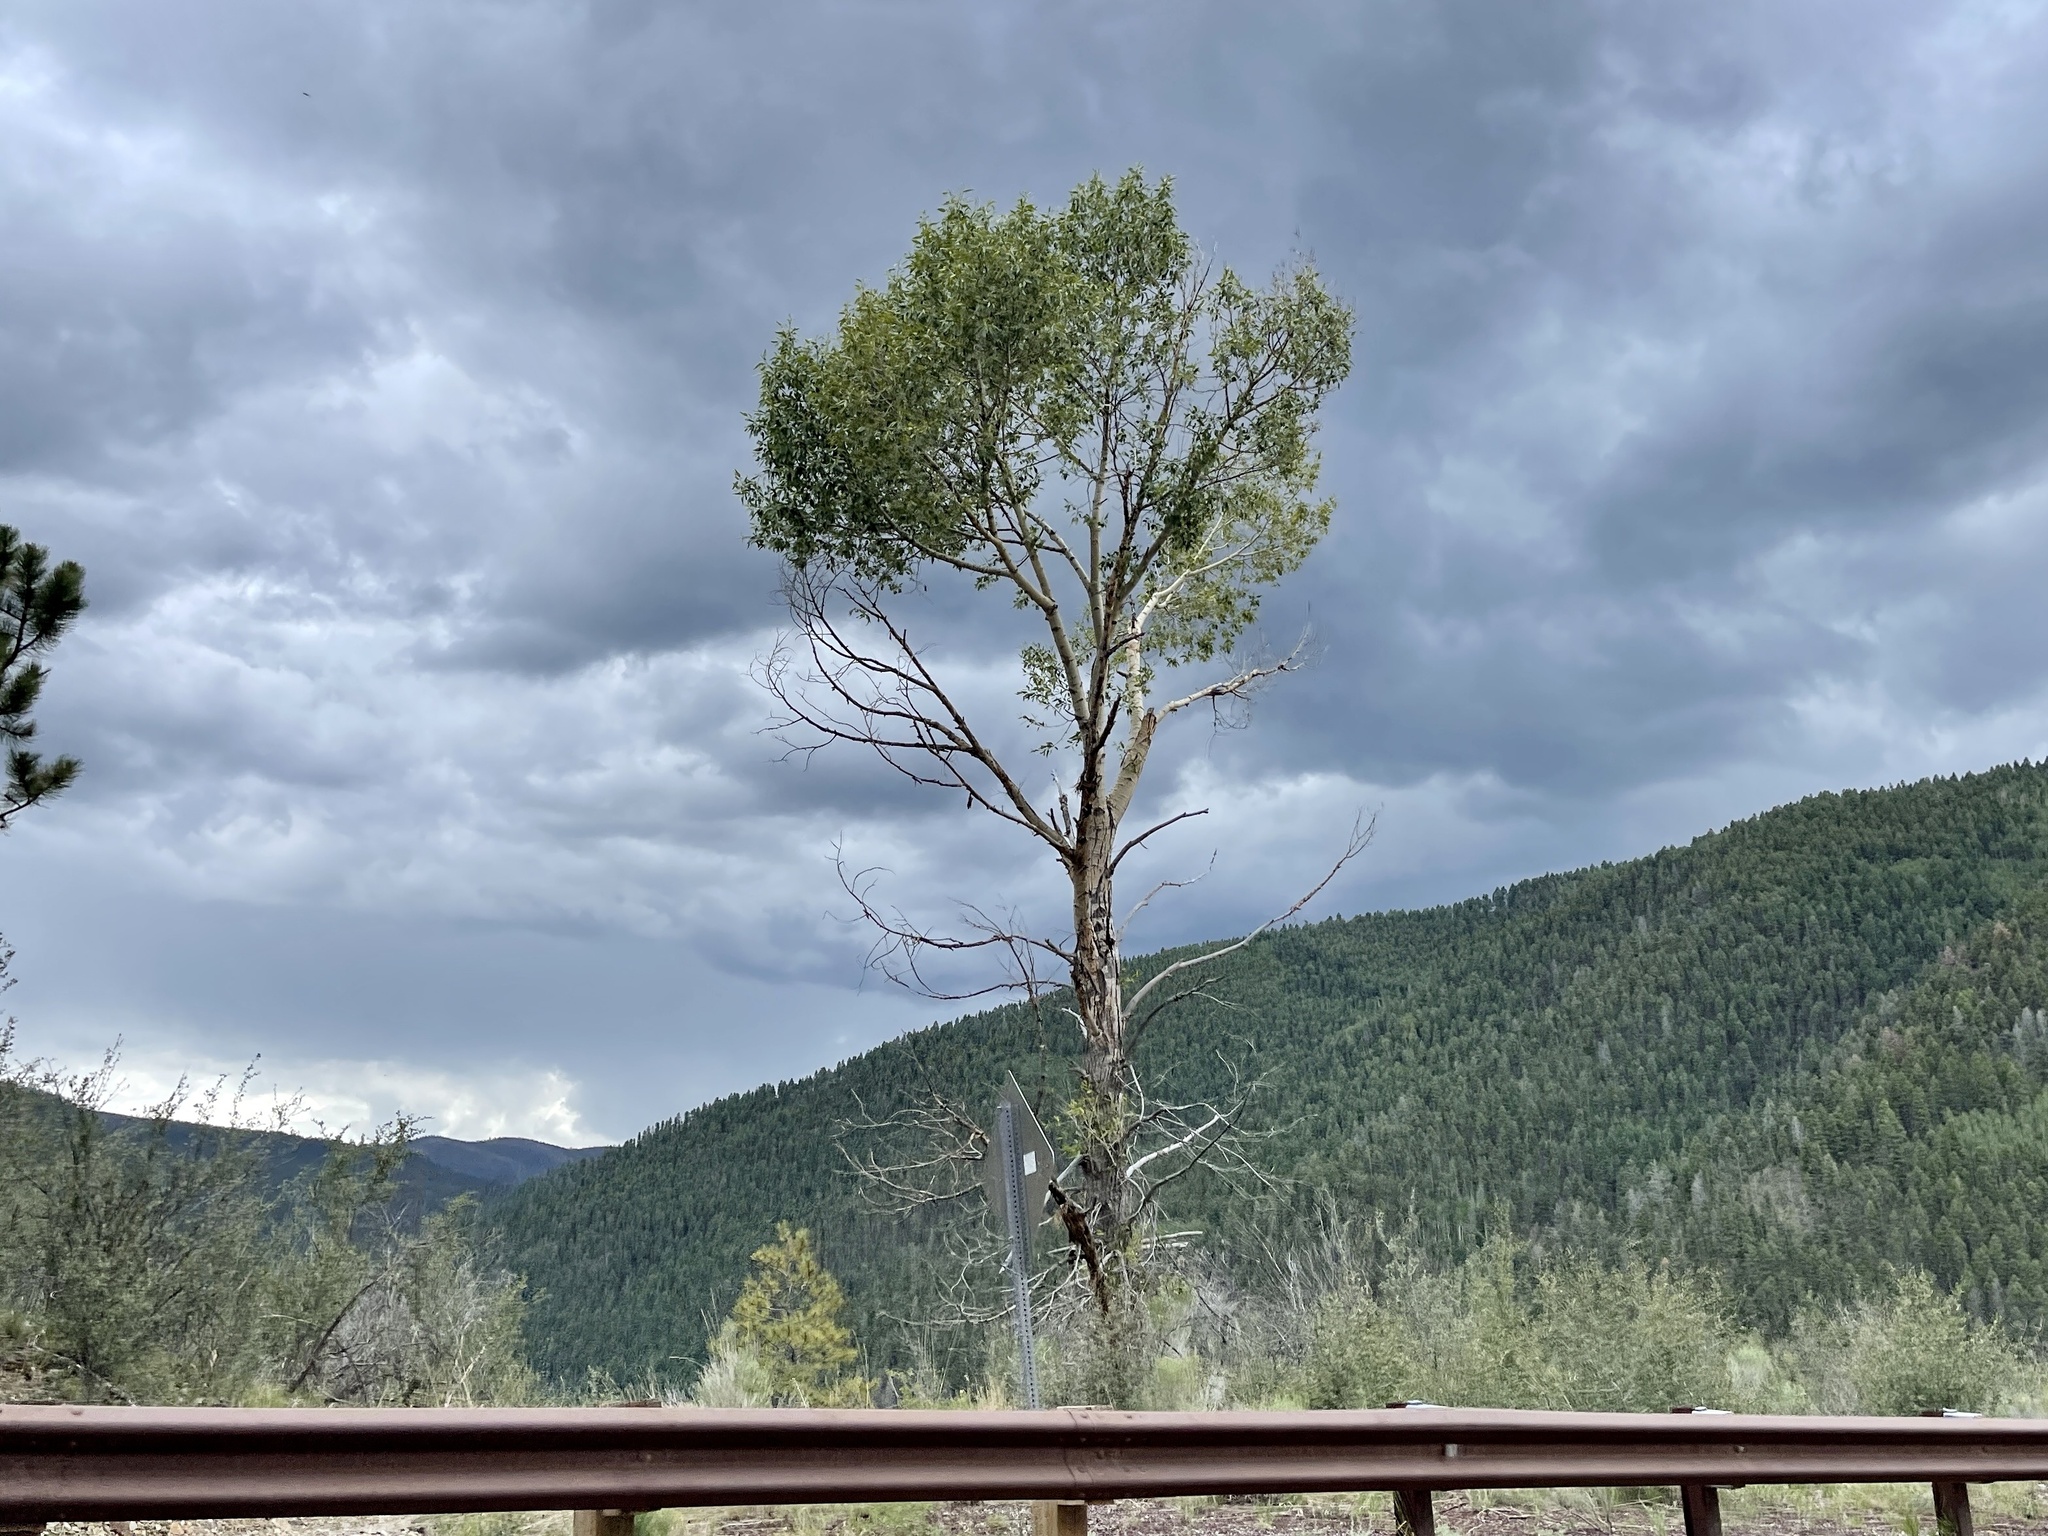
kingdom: Plantae
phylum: Tracheophyta
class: Magnoliopsida
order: Malpighiales
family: Salicaceae
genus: Populus
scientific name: Populus tremuloides
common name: Quaking aspen
